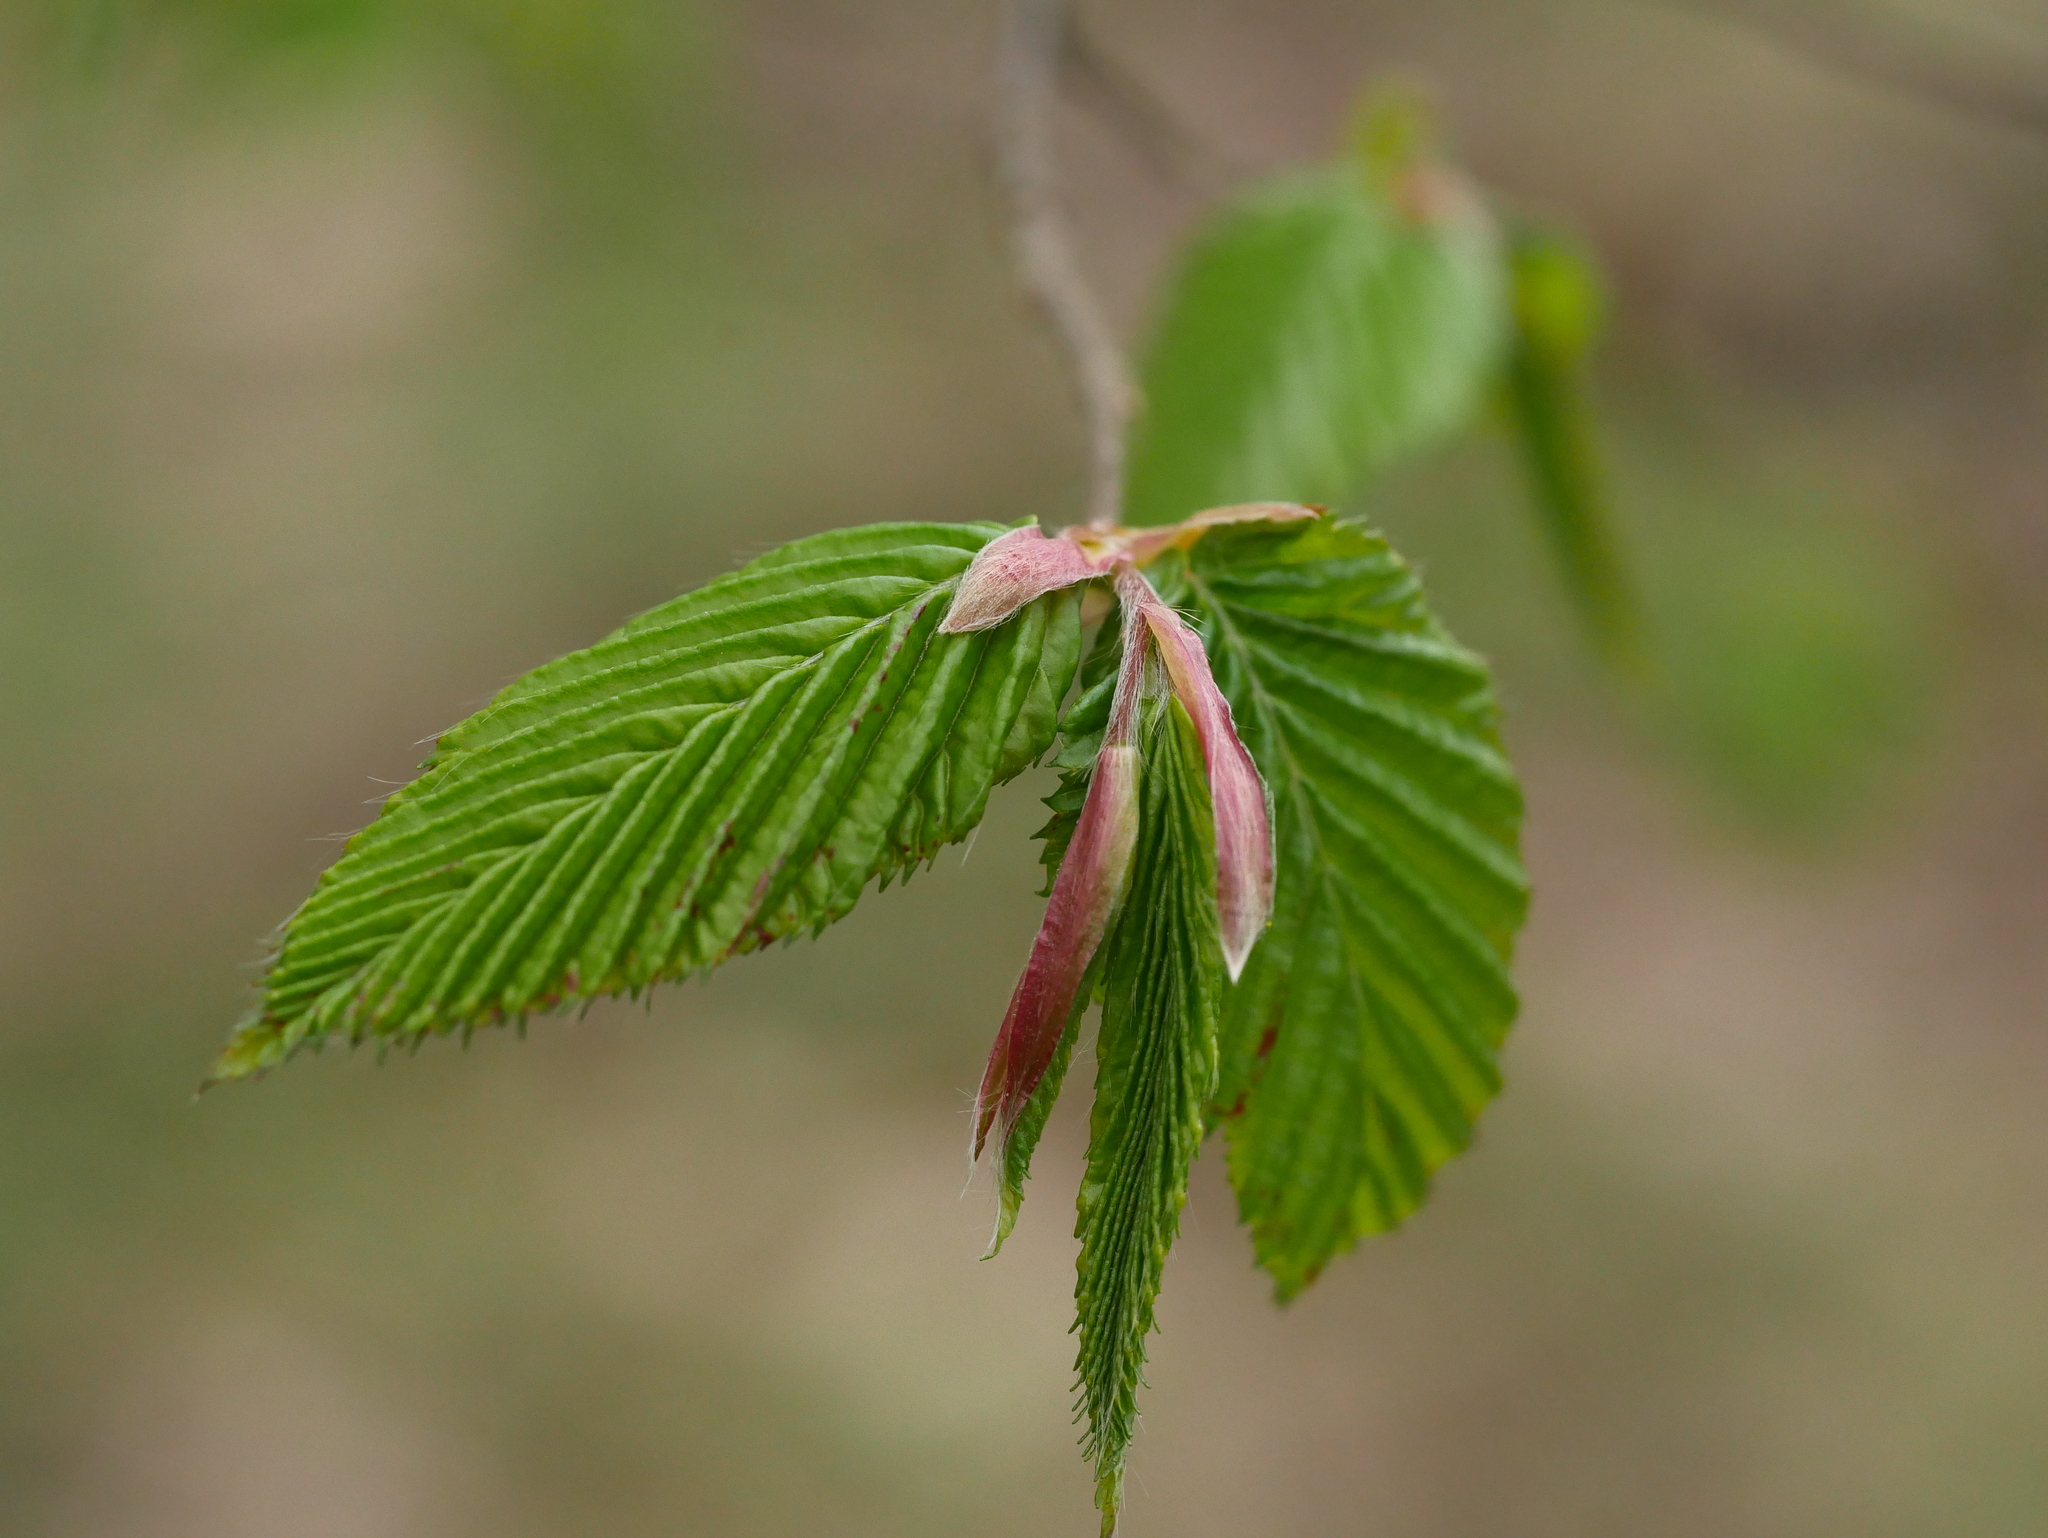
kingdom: Plantae
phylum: Tracheophyta
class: Magnoliopsida
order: Fagales
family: Betulaceae
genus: Carpinus
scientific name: Carpinus betulus
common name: Hornbeam
